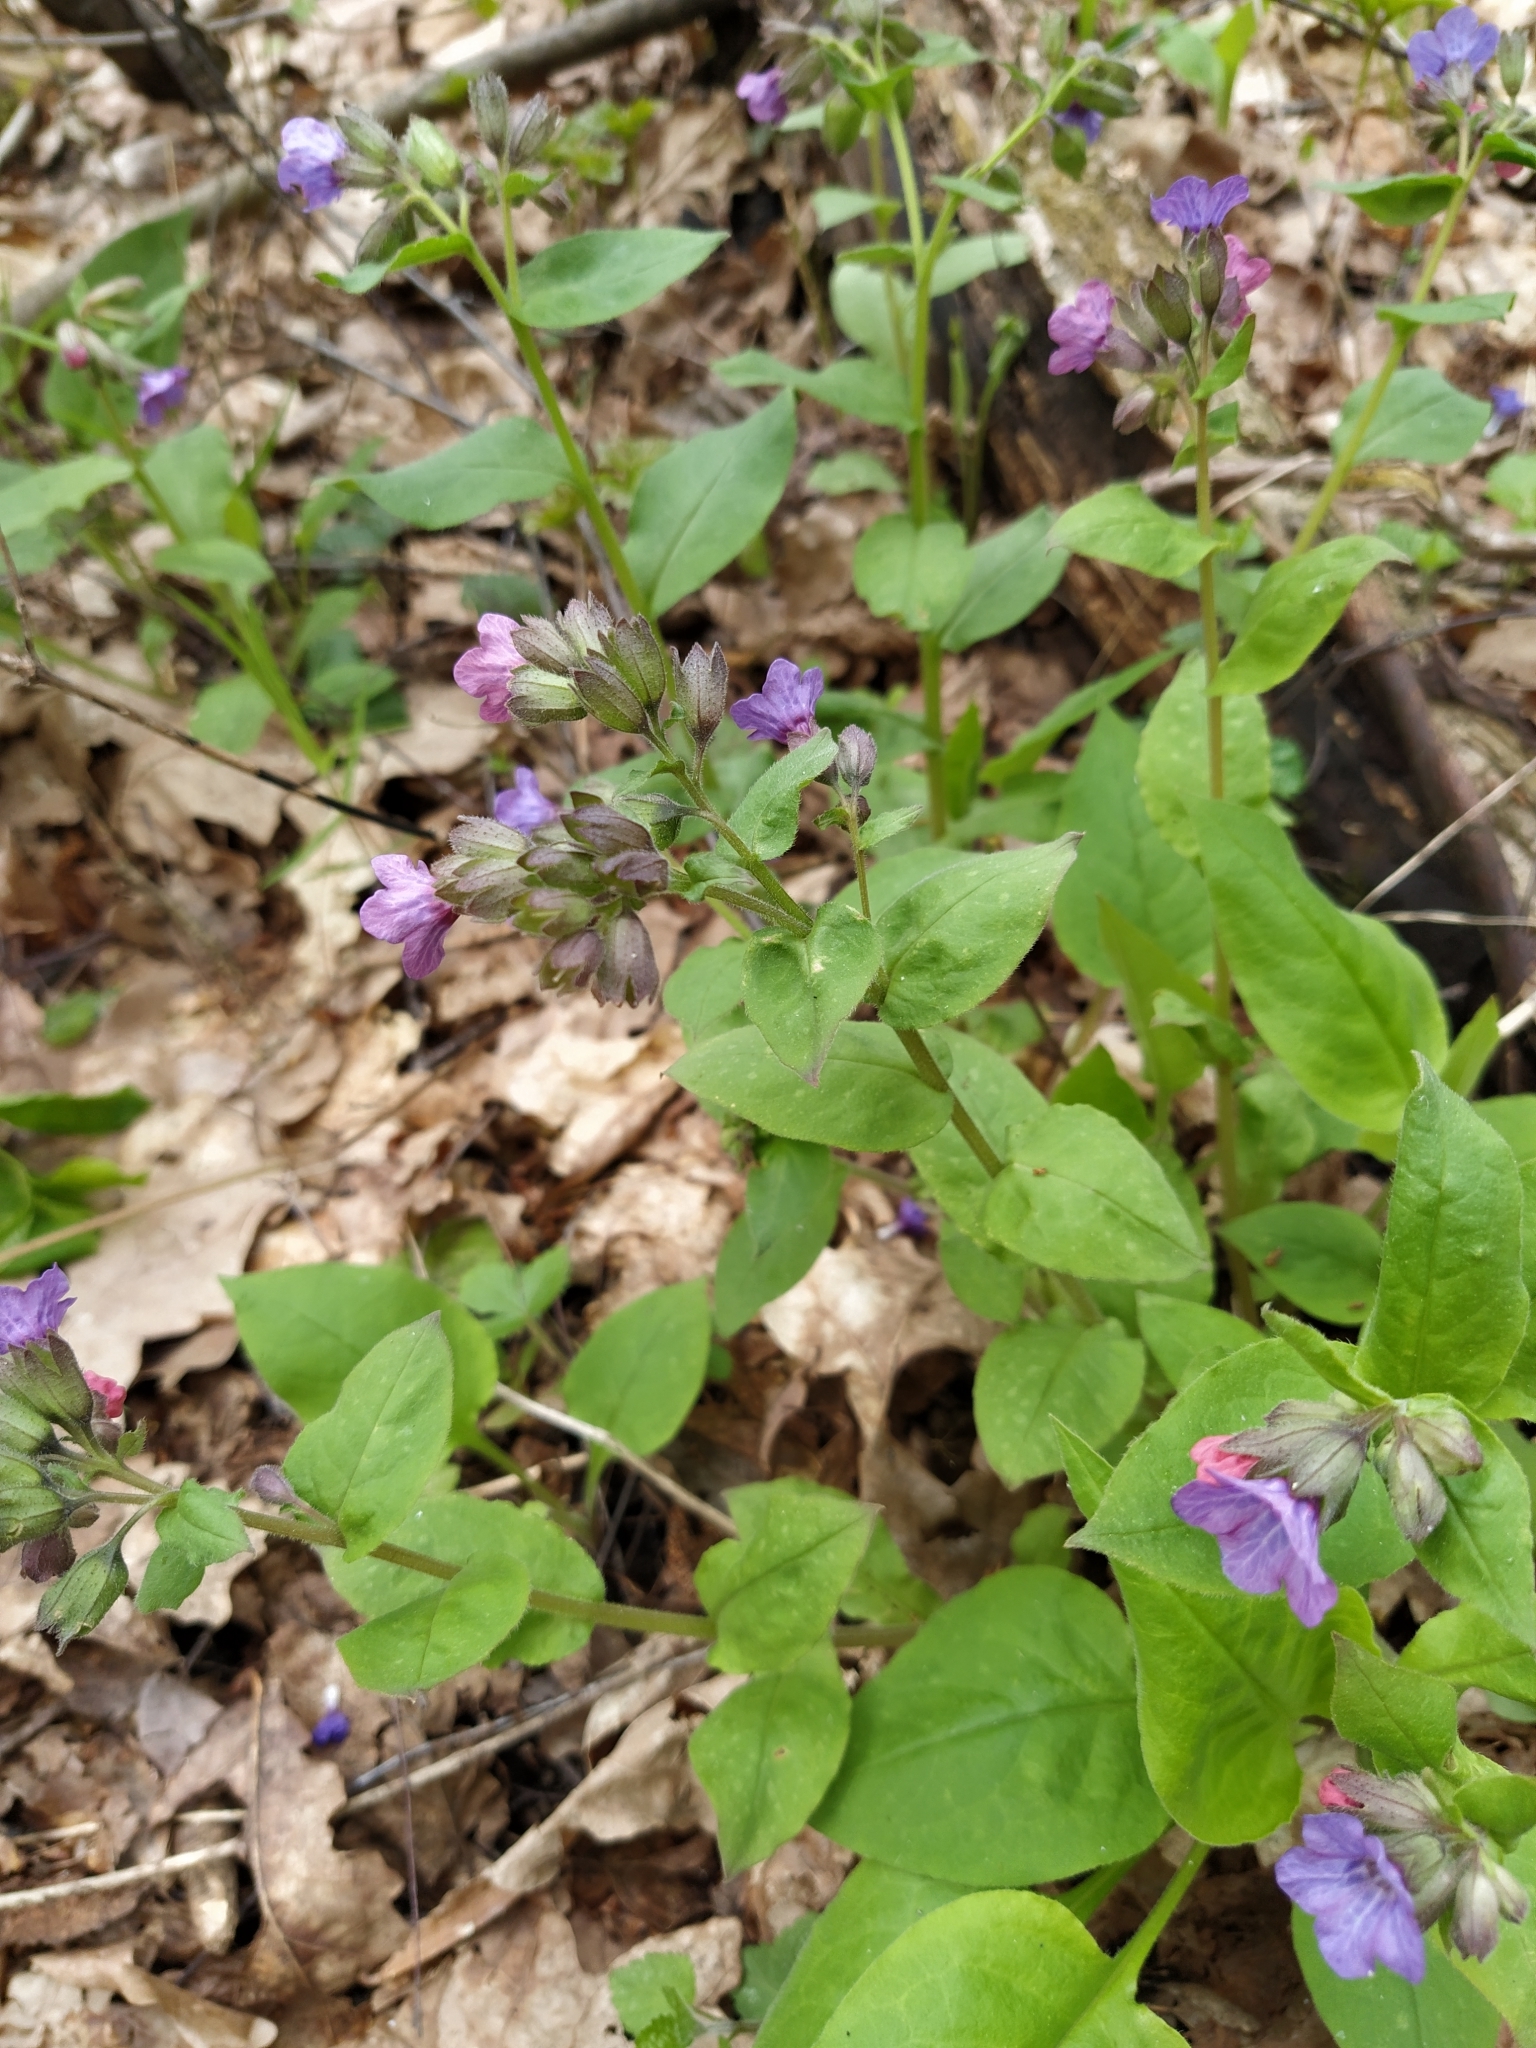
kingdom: Plantae
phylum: Tracheophyta
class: Magnoliopsida
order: Boraginales
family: Boraginaceae
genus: Pulmonaria
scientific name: Pulmonaria obscura
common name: Suffolk lungwort
